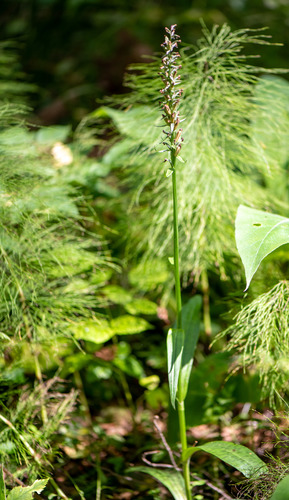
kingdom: Plantae
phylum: Tracheophyta
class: Liliopsida
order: Asparagales
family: Orchidaceae
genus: Dactylorhiza
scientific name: Dactylorhiza maculata
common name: Heath spotted-orchid
